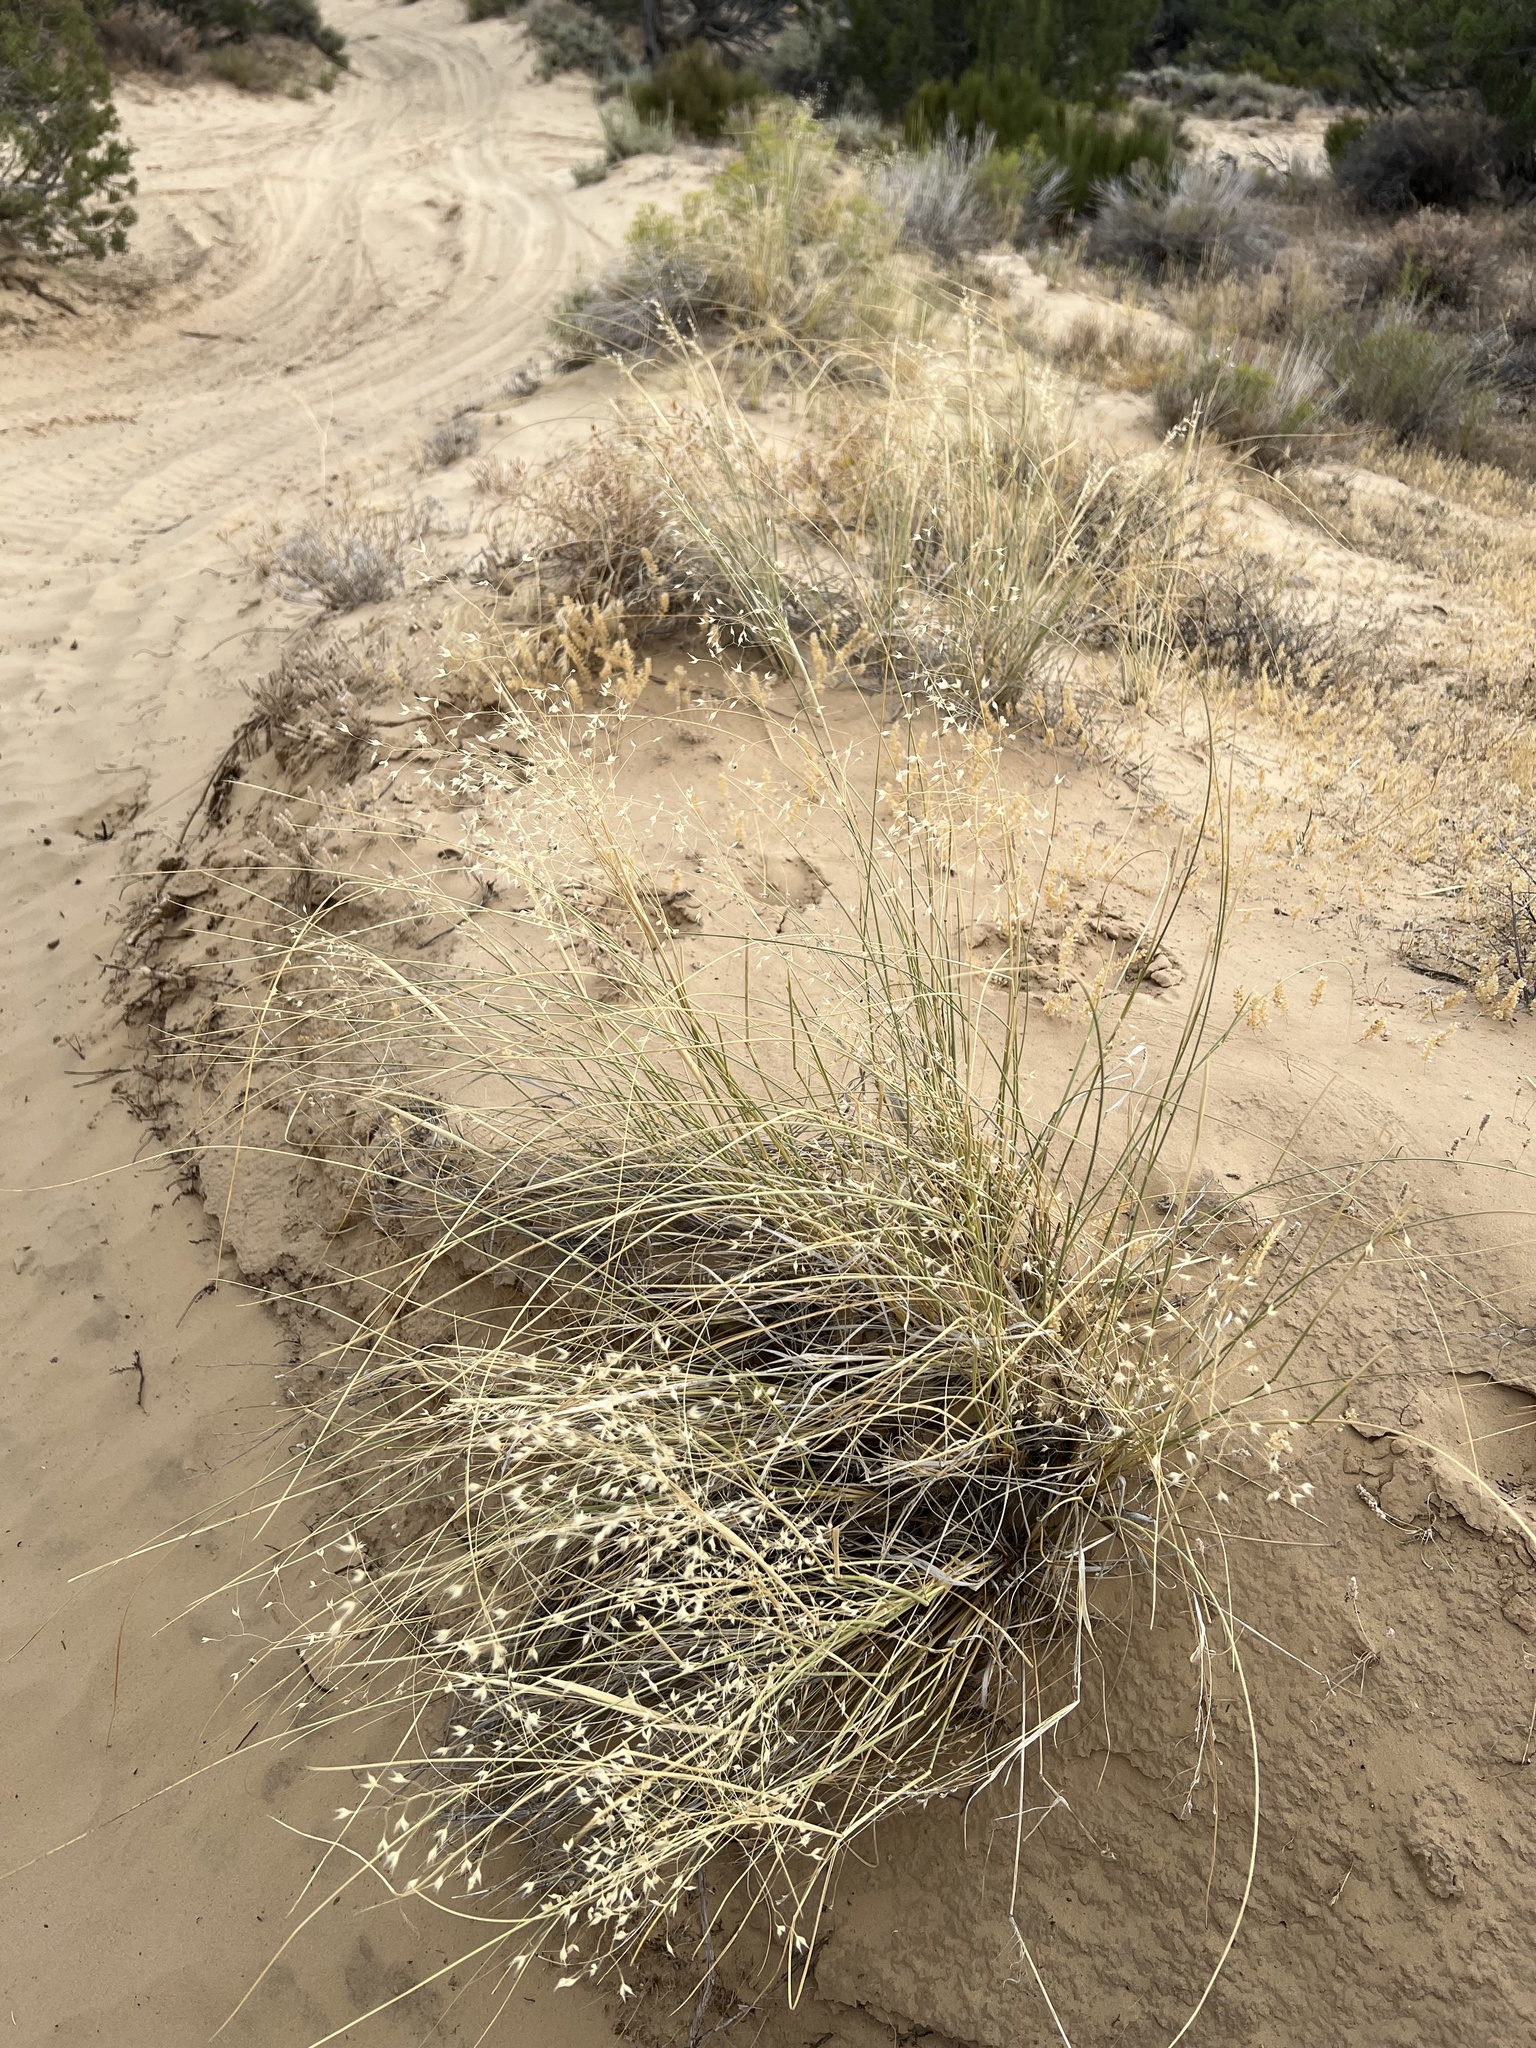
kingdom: Plantae
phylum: Tracheophyta
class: Liliopsida
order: Poales
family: Poaceae
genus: Eriocoma
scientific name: Eriocoma hymenoides
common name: Indian mountain ricegrass
